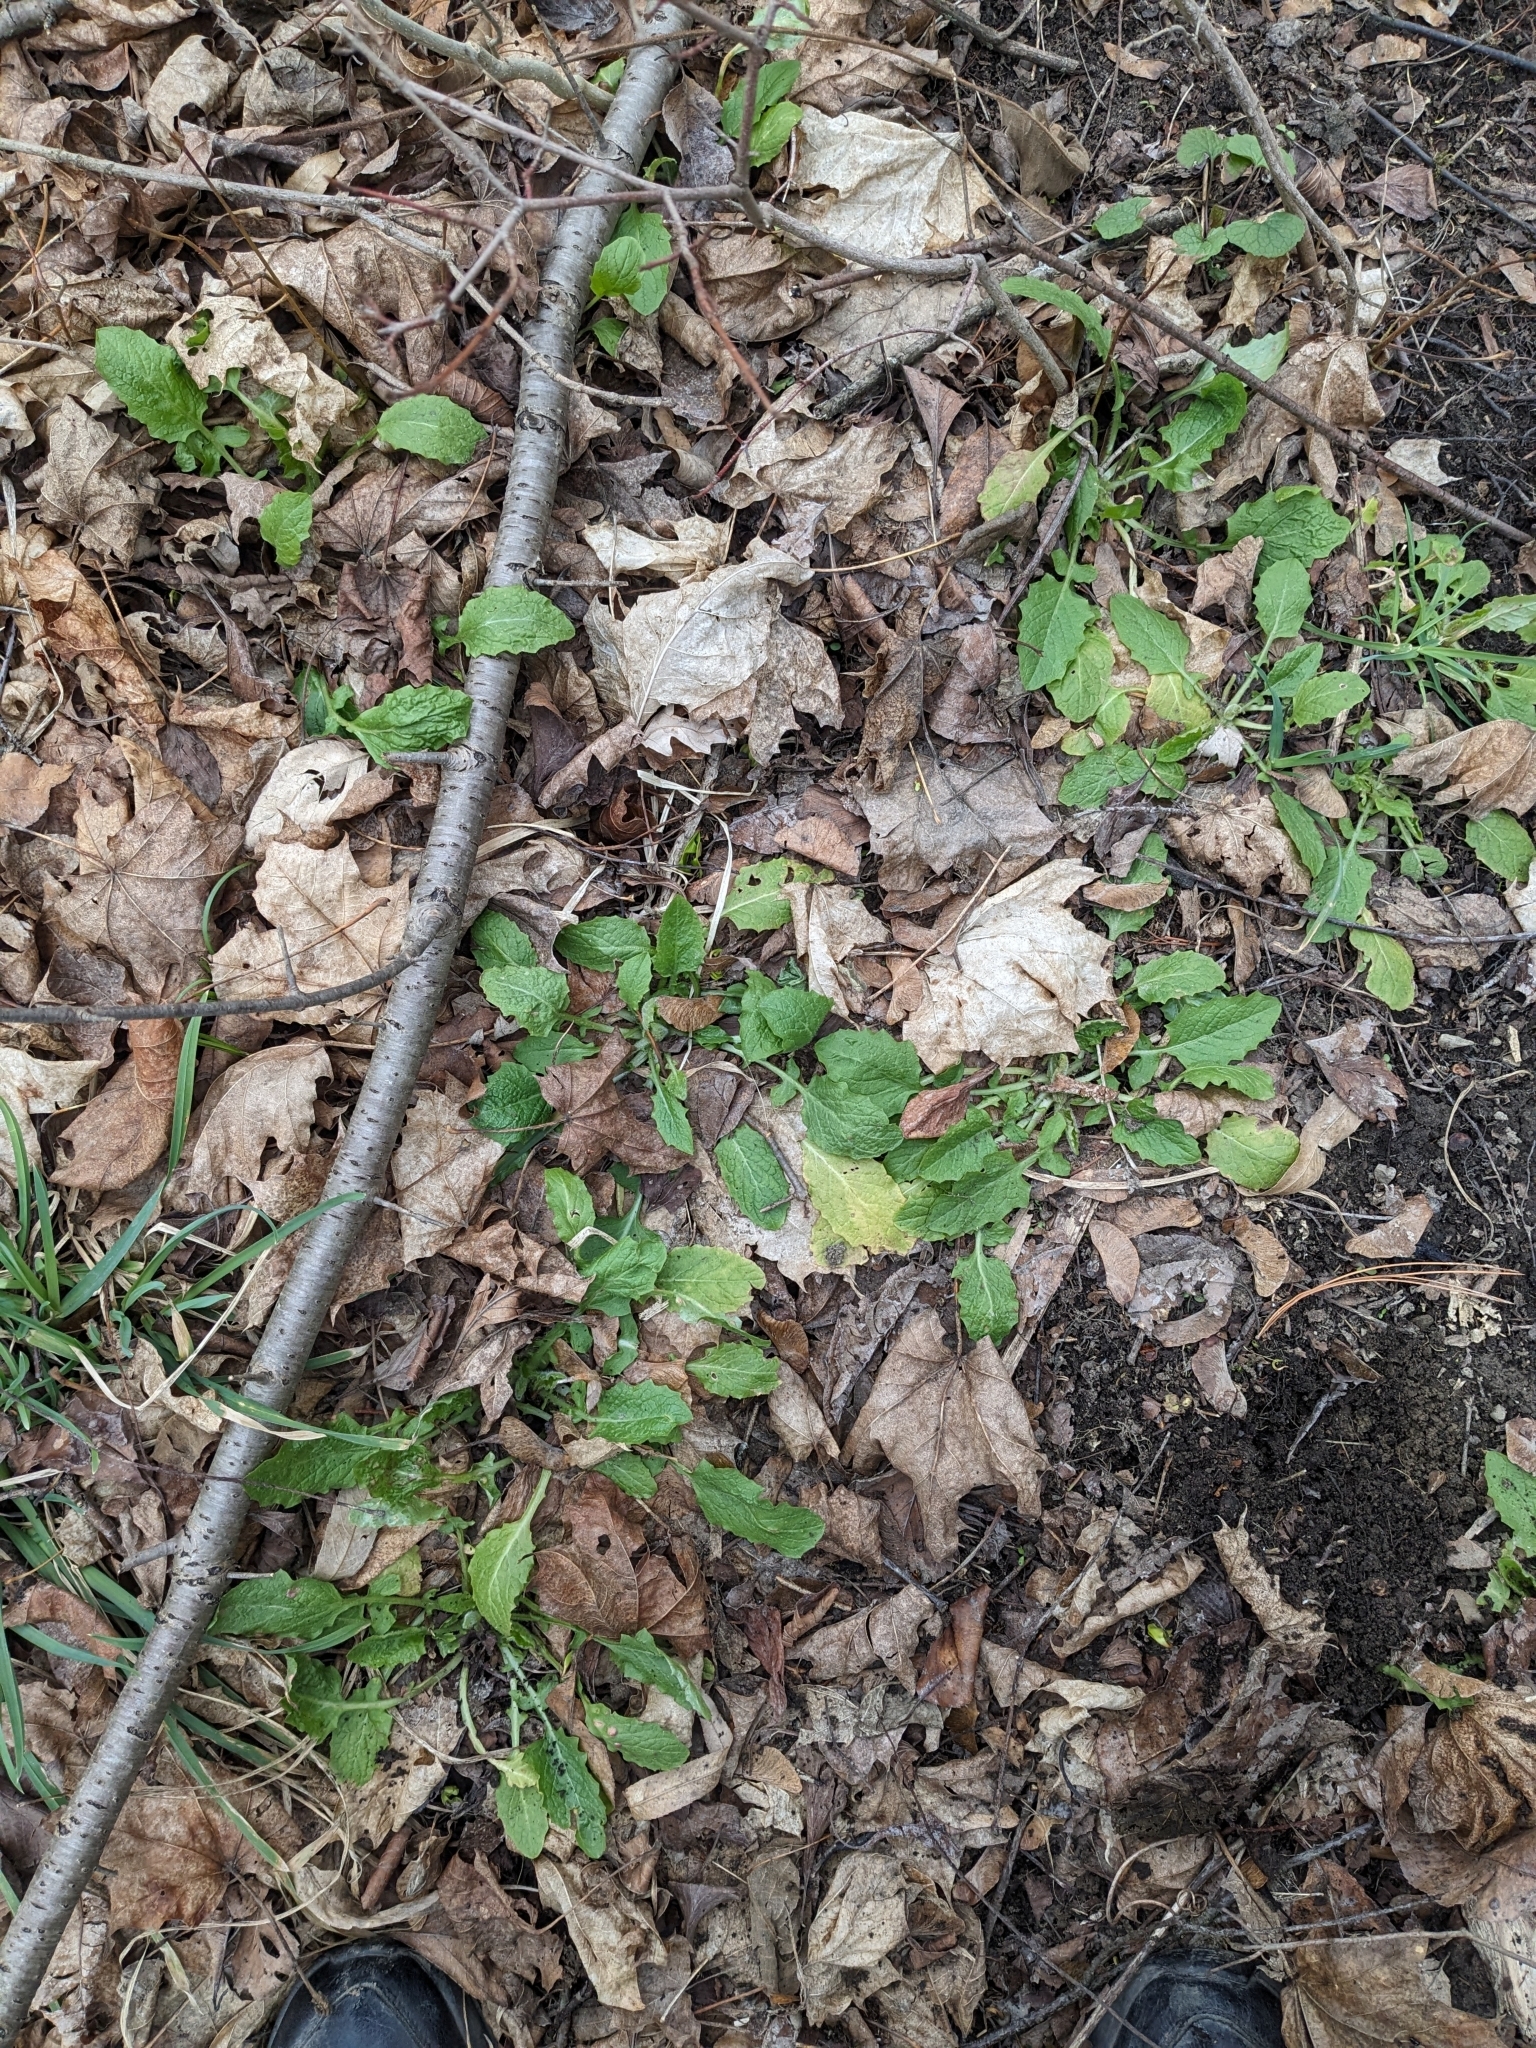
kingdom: Plantae
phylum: Tracheophyta
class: Magnoliopsida
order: Asterales
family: Asteraceae
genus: Lapsana
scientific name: Lapsana communis
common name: Nipplewort
